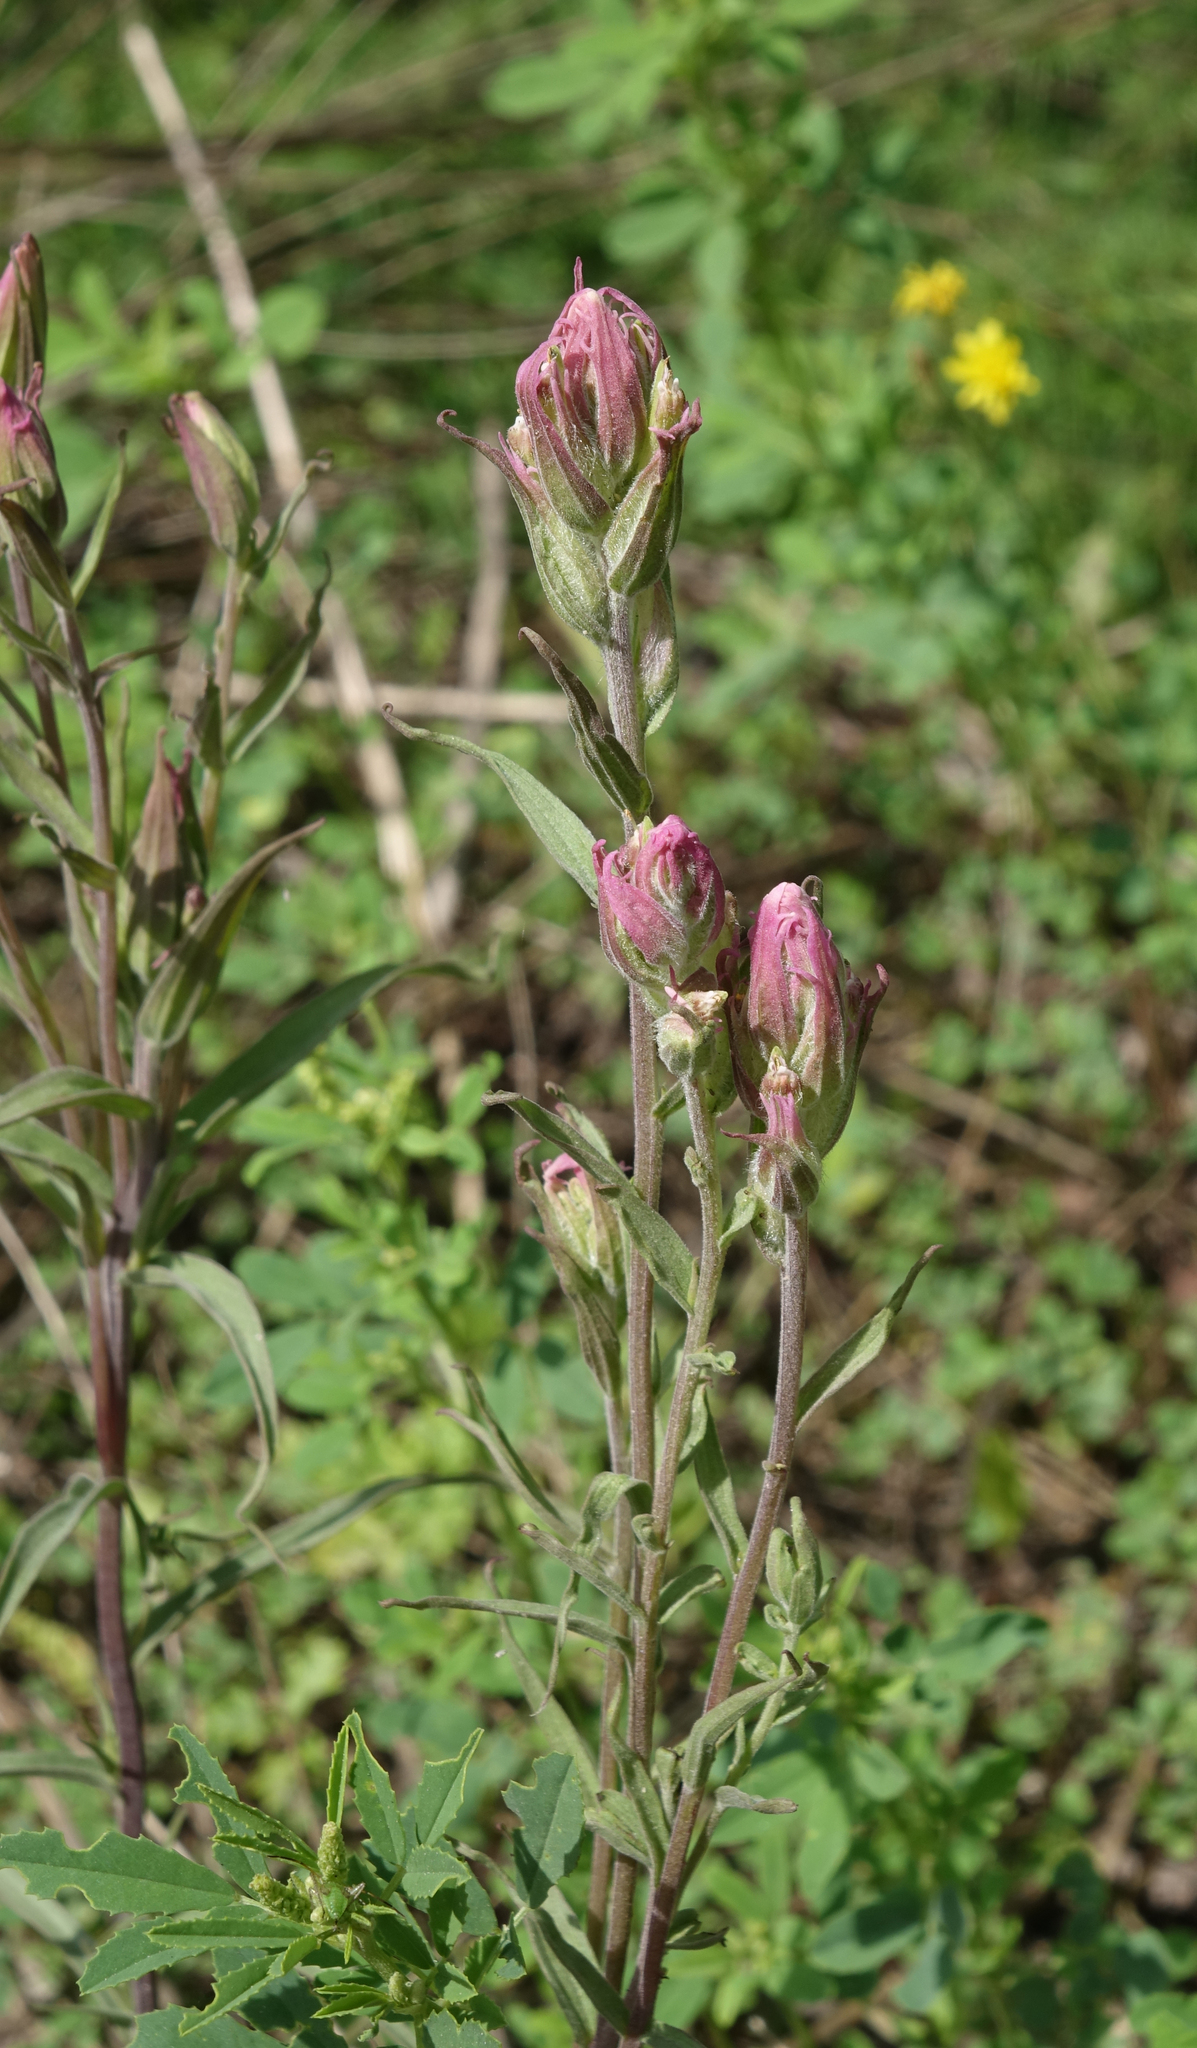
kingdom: Plantae
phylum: Tracheophyta
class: Magnoliopsida
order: Lamiales
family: Orobanchaceae
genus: Castilleja
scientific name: Castilleja rubra
